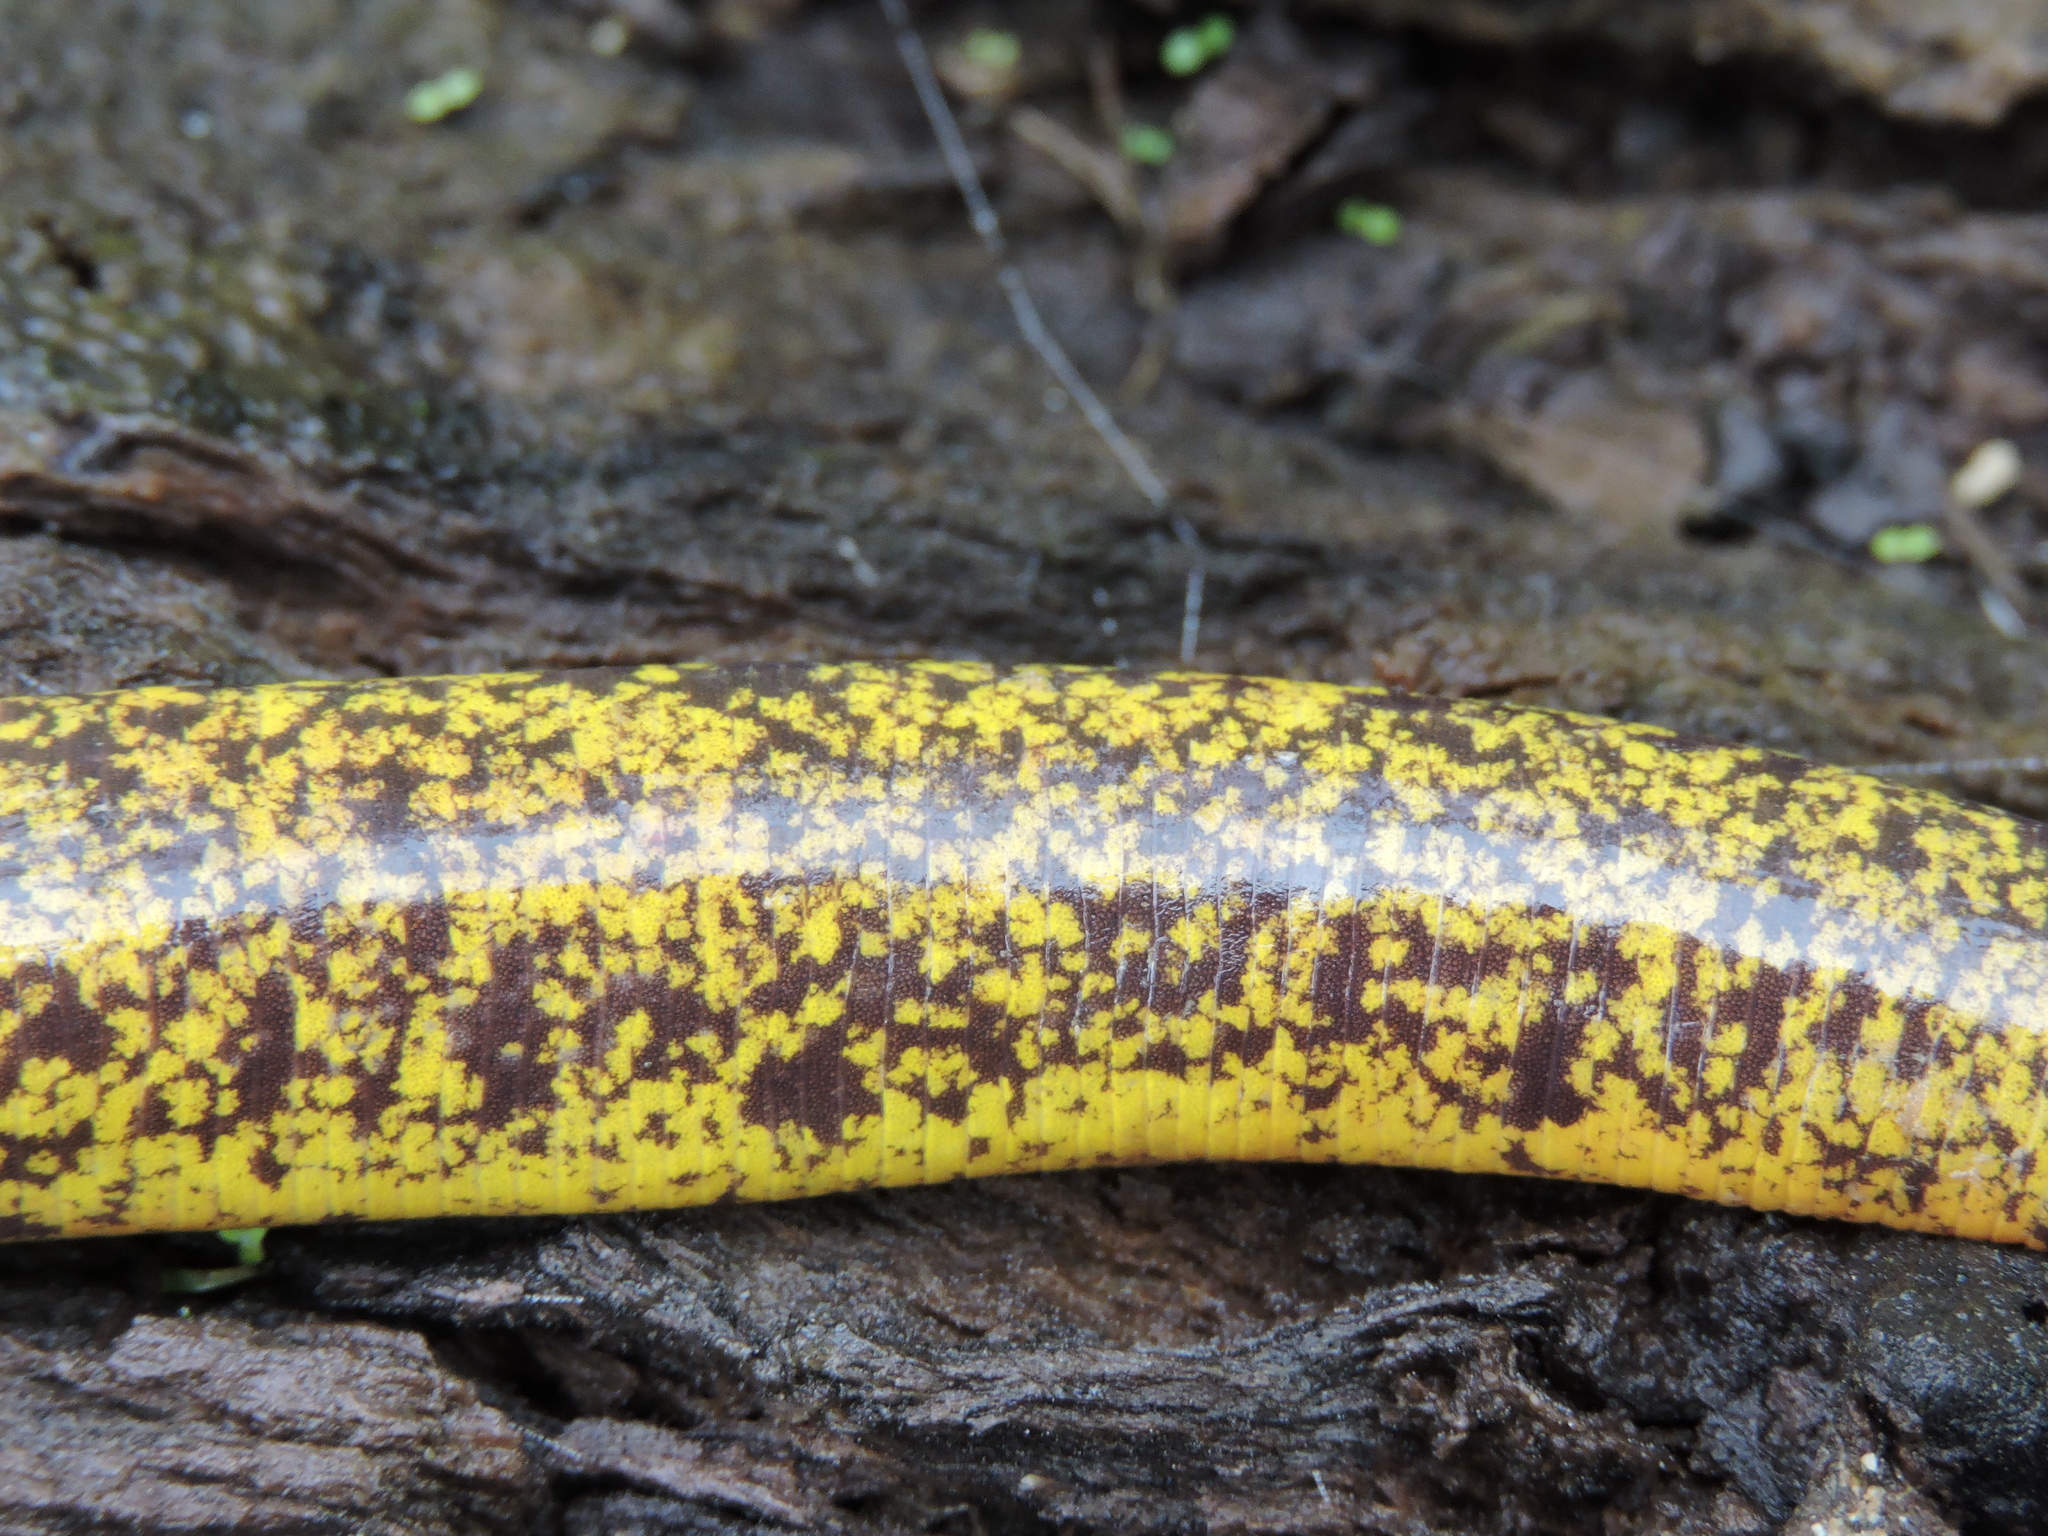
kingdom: Animalia
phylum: Chordata
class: Amphibia
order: Gymnophiona
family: Rhinatrematidae
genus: Epicrionops
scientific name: Epicrionops bicolor
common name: Two-colored caecilian
